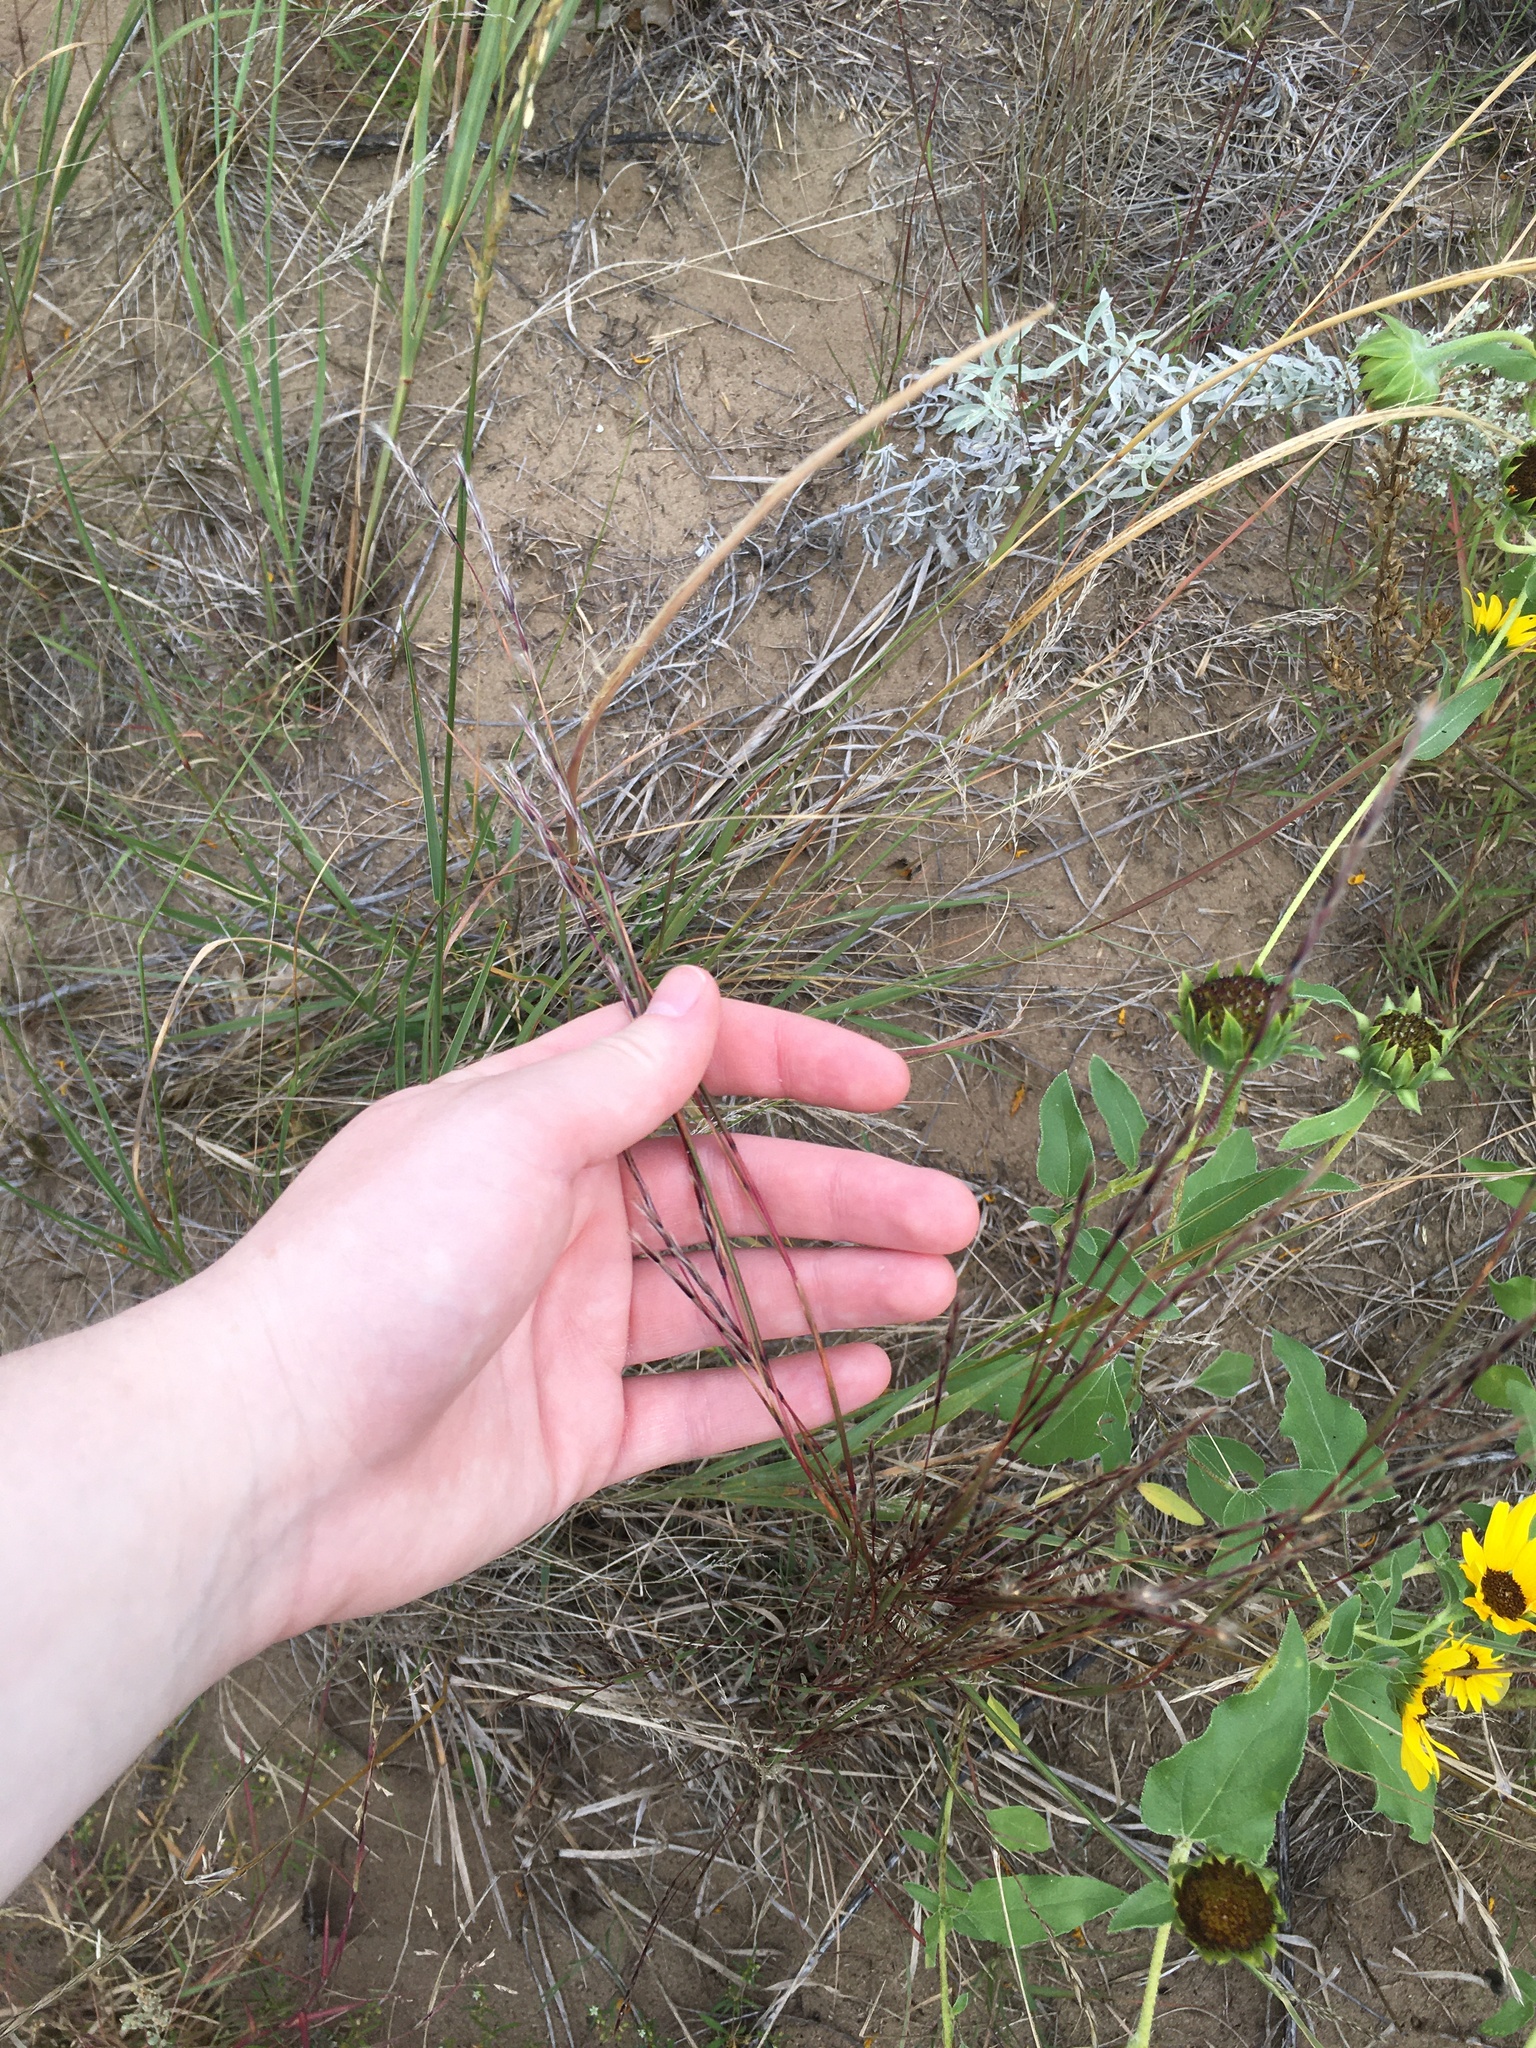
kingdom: Plantae
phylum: Tracheophyta
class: Liliopsida
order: Poales
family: Poaceae
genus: Schizachyrium
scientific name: Schizachyrium scoparium
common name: Little bluestem
